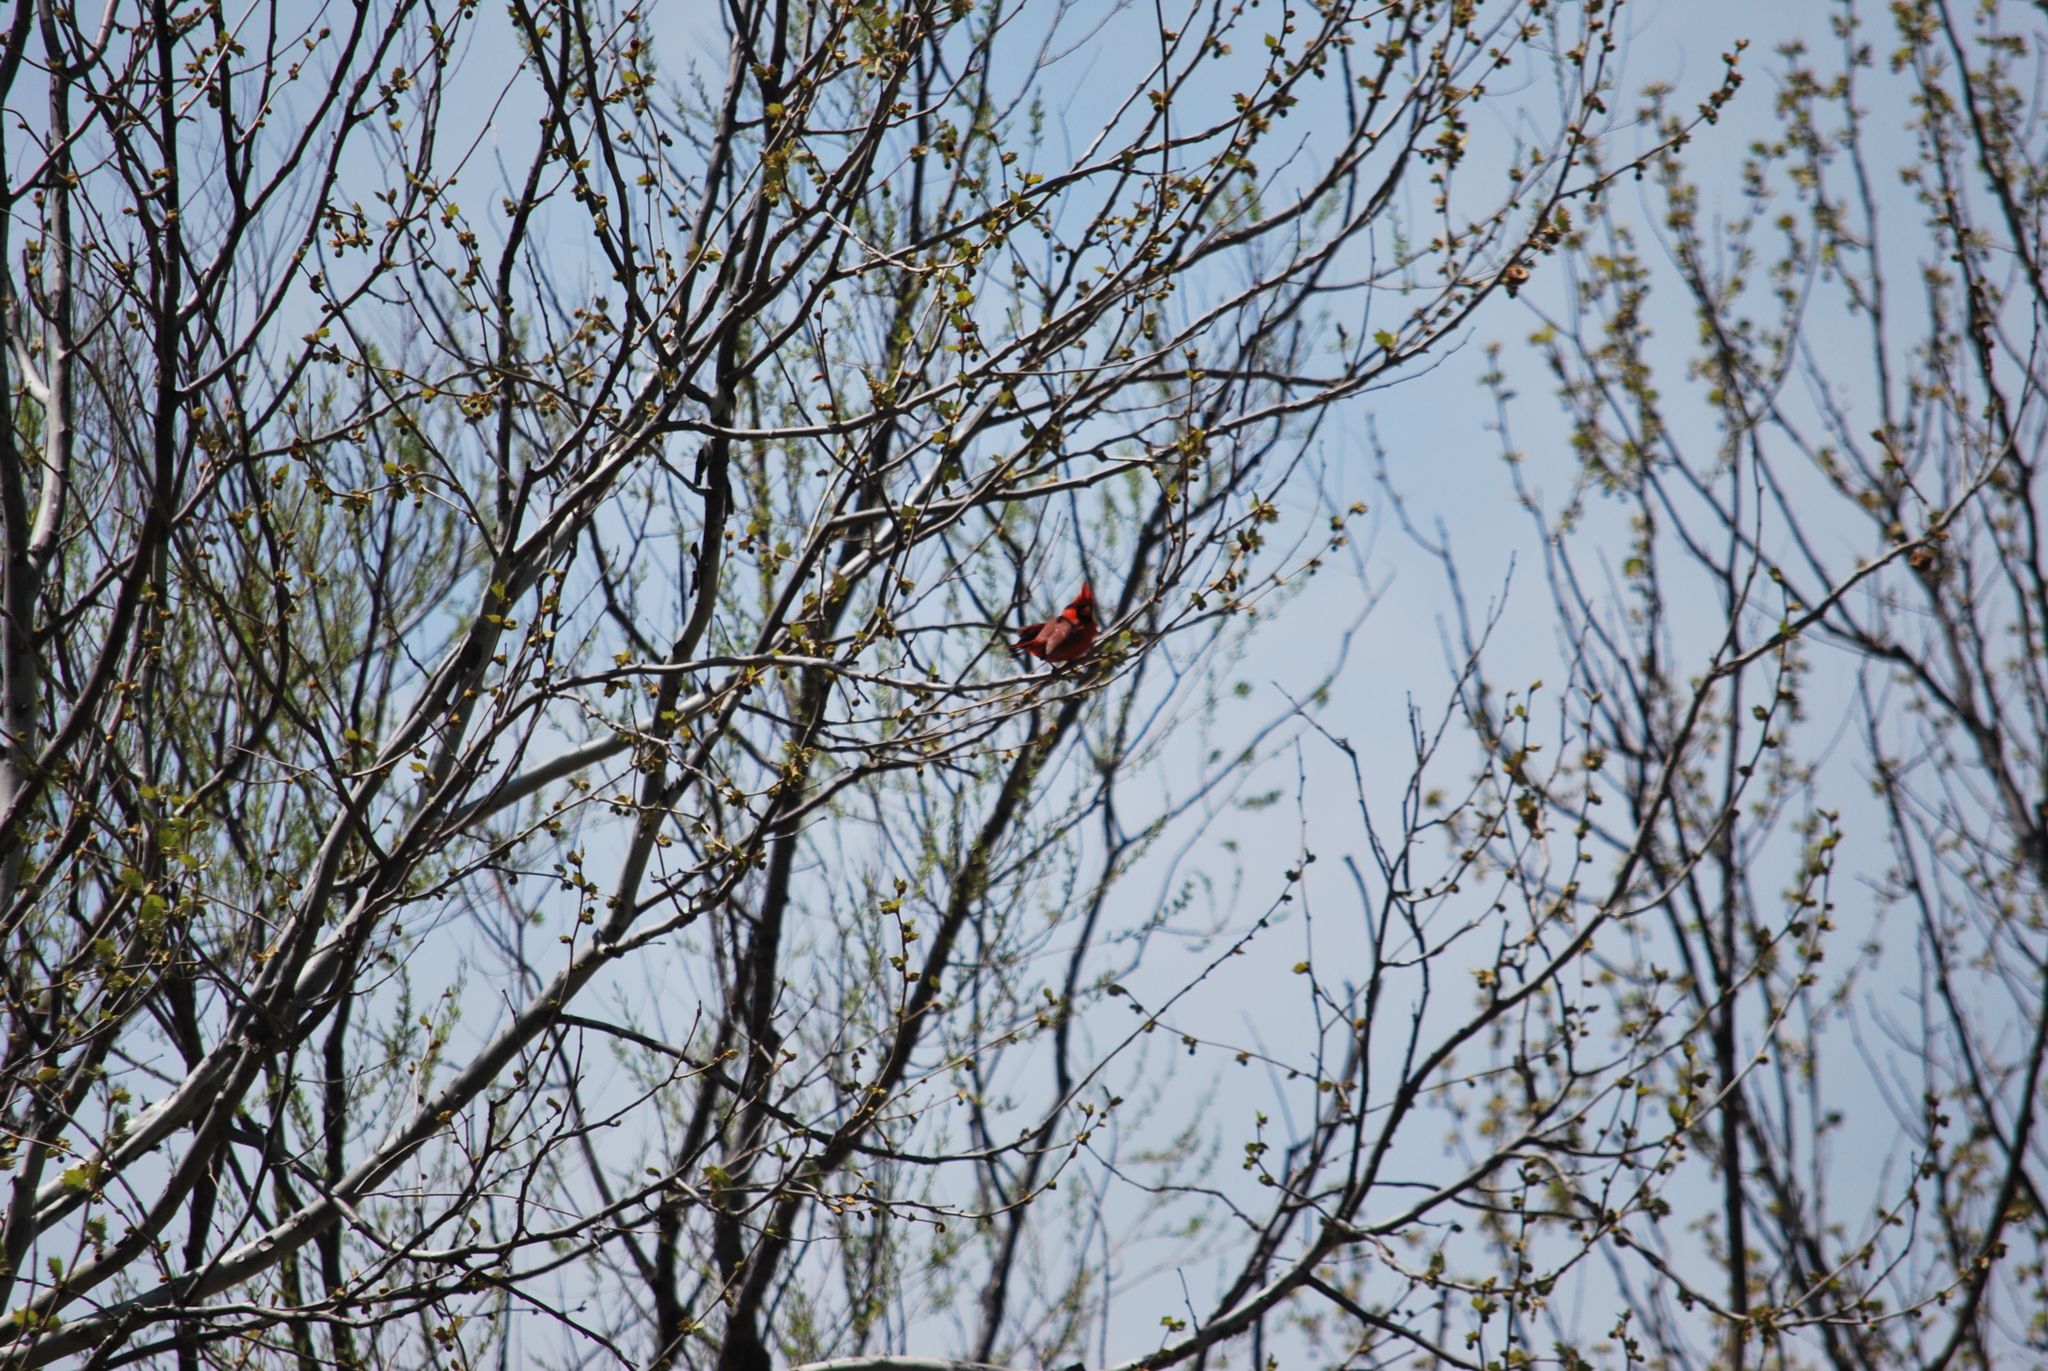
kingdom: Animalia
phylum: Chordata
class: Aves
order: Passeriformes
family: Cardinalidae
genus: Cardinalis
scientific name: Cardinalis cardinalis
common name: Northern cardinal
